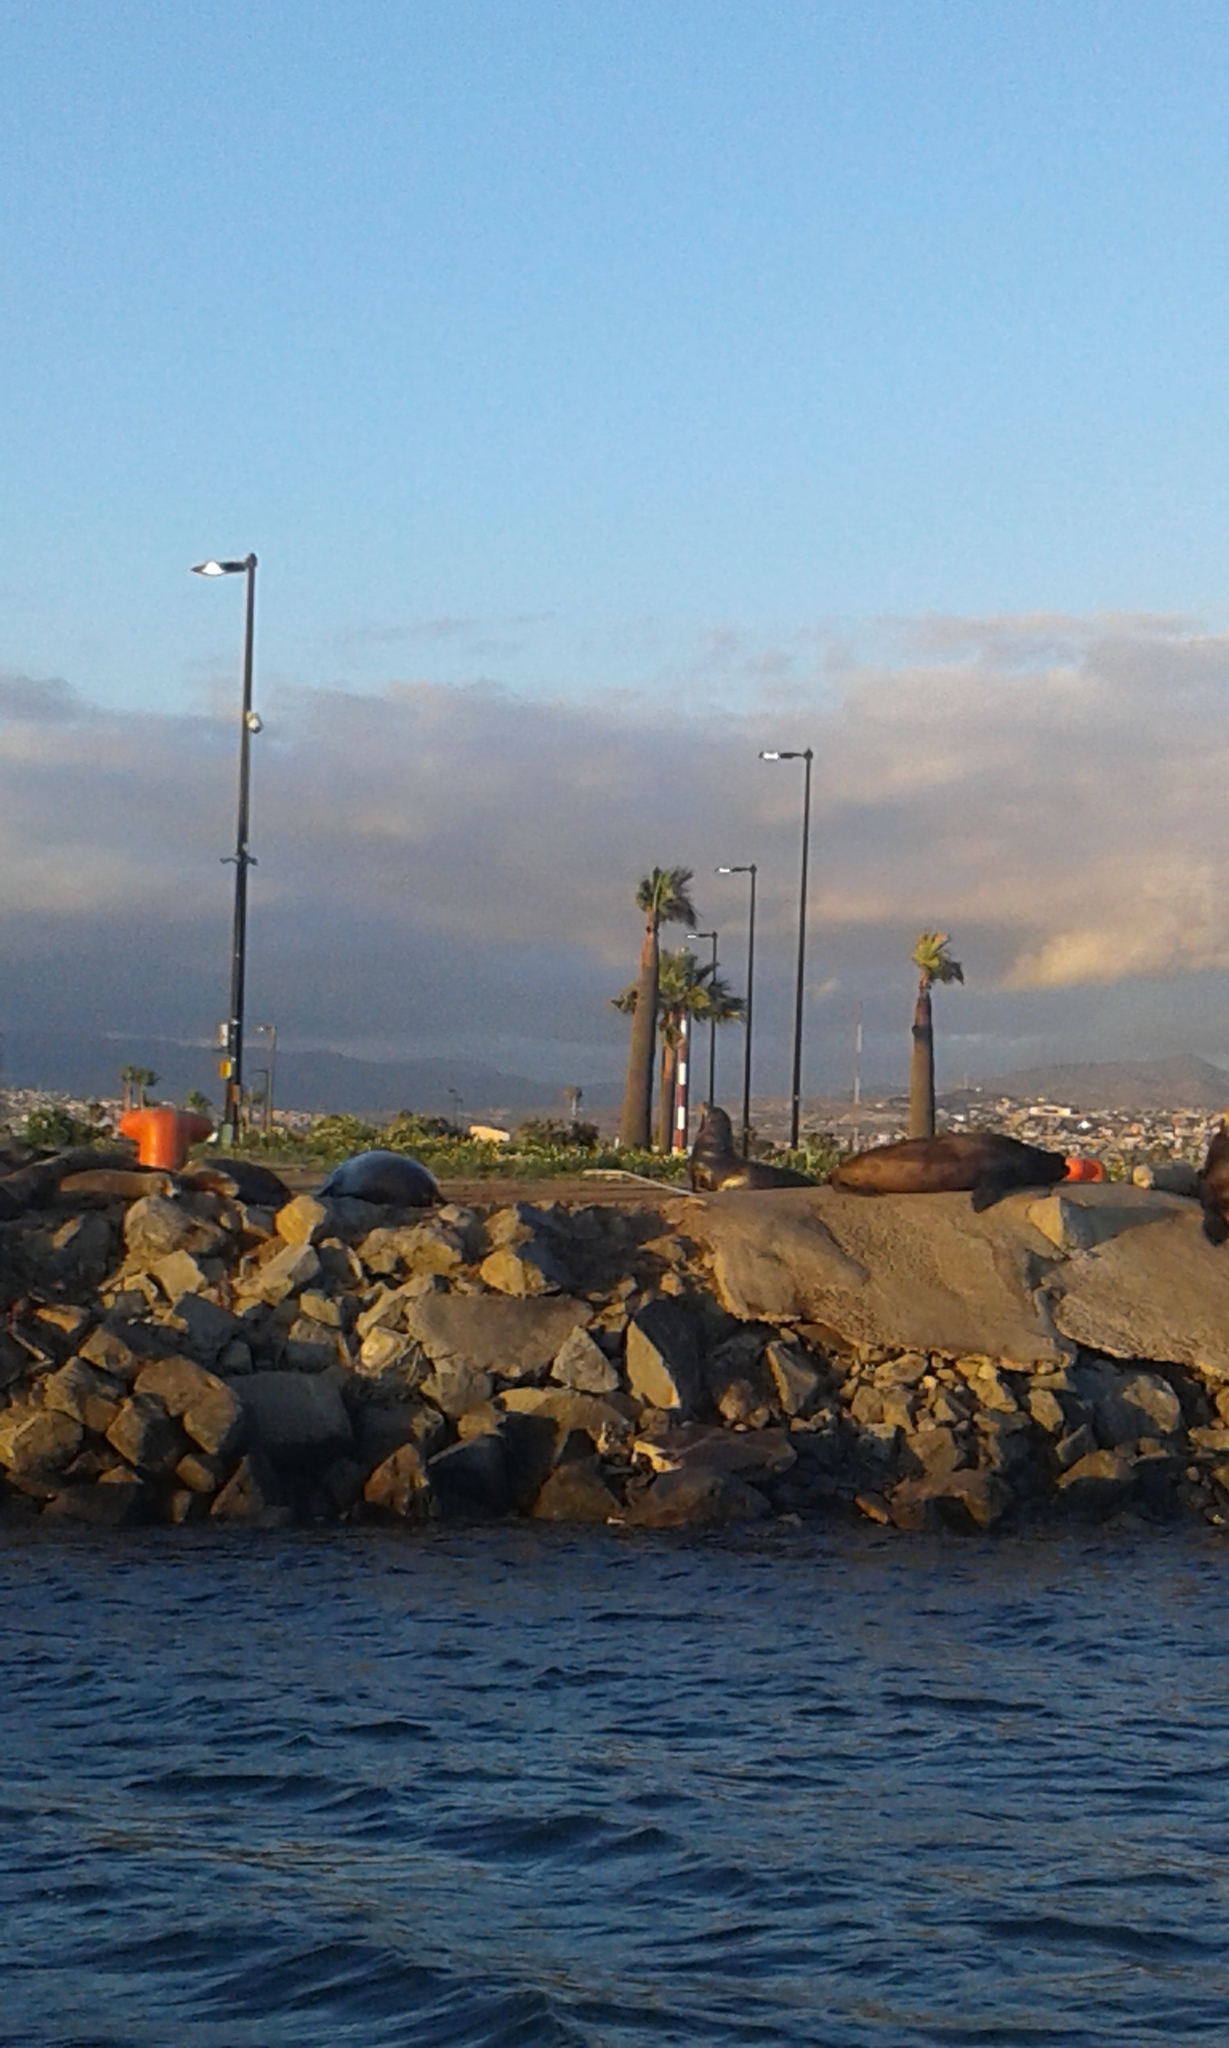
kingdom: Animalia
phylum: Chordata
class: Mammalia
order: Carnivora
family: Otariidae
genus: Zalophus
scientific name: Zalophus californianus
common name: California sea lion
